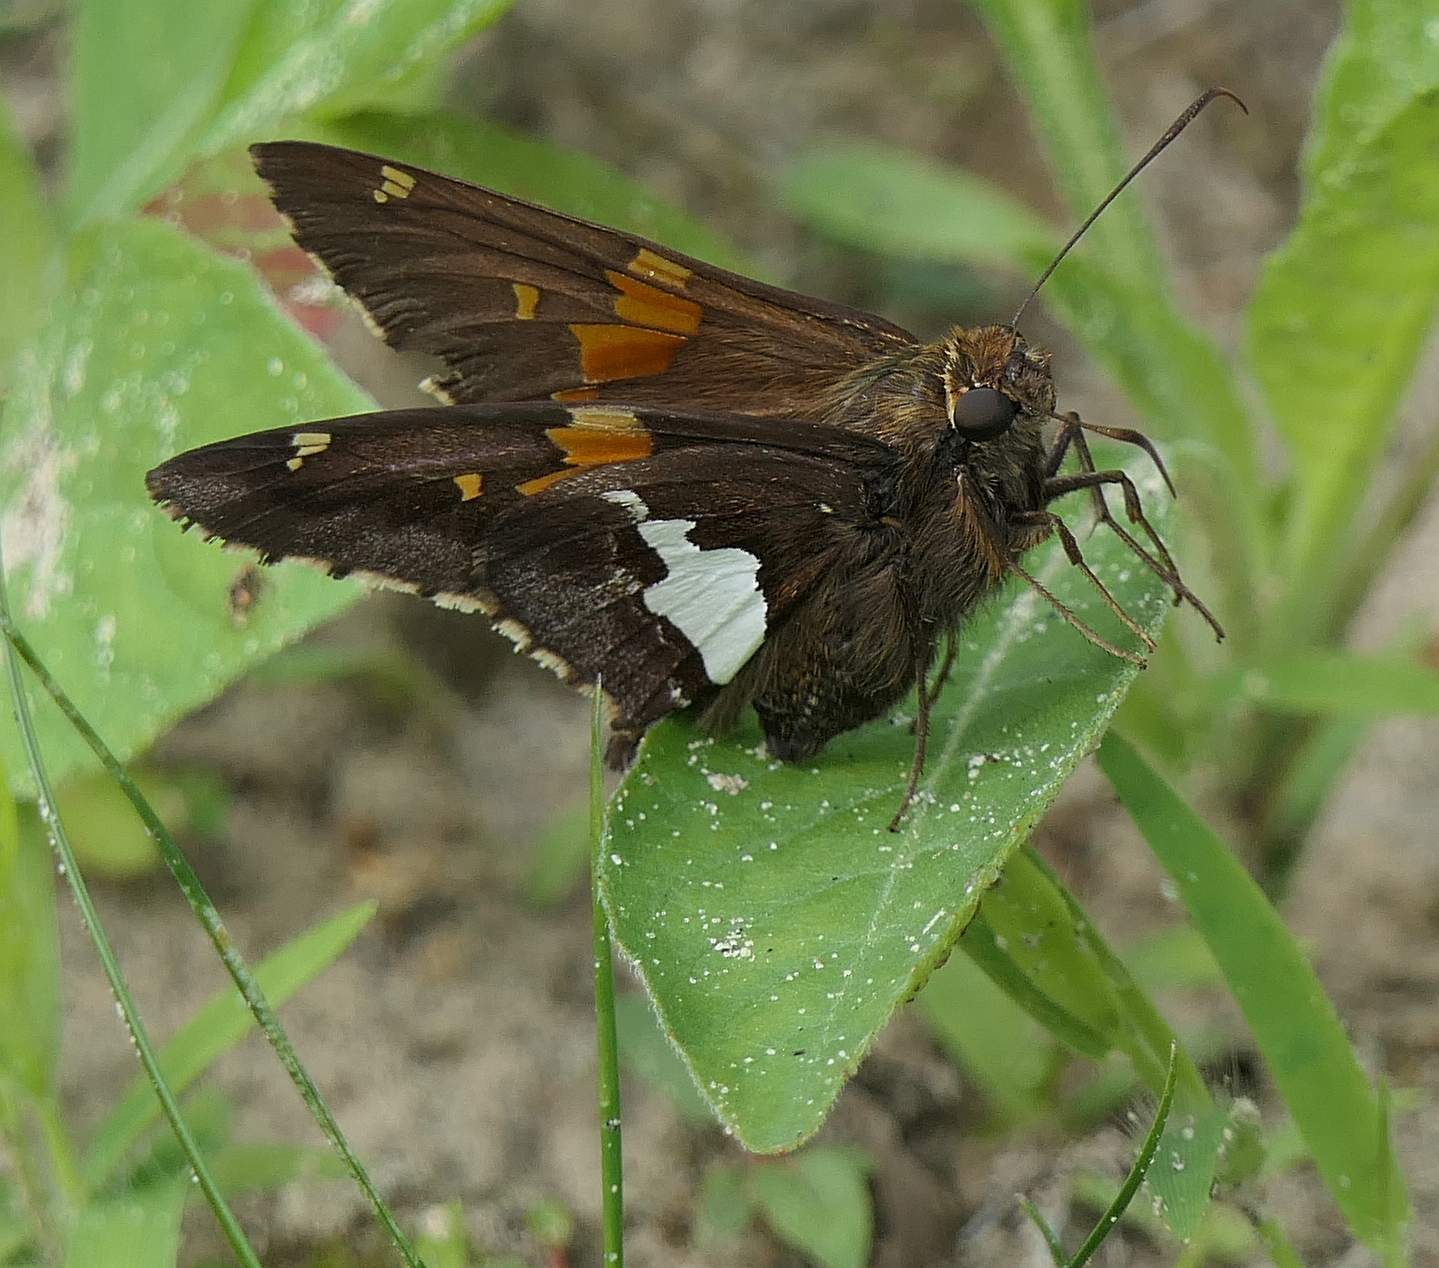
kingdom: Animalia
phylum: Arthropoda
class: Insecta
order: Lepidoptera
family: Hesperiidae
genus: Epargyreus
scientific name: Epargyreus clarus
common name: Silver-spotted skipper
